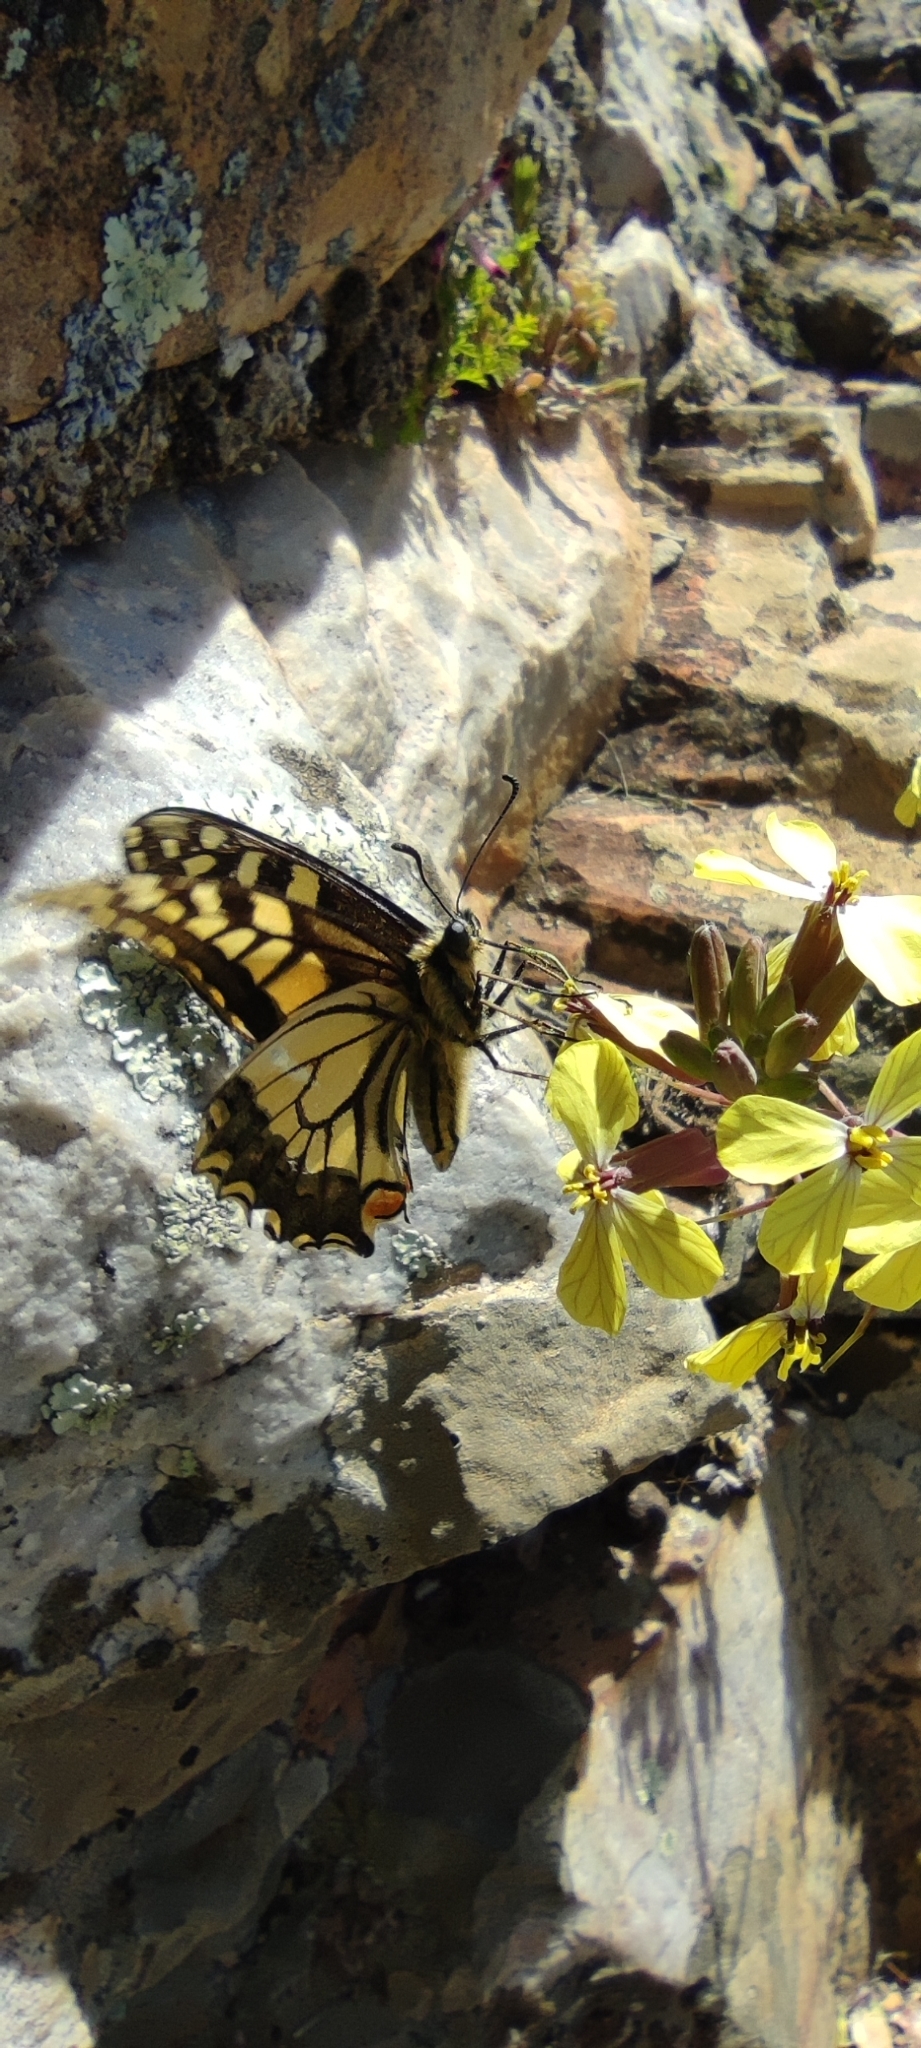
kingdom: Animalia
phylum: Arthropoda
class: Insecta
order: Lepidoptera
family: Papilionidae
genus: Papilio
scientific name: Papilio machaon
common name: Swallowtail
